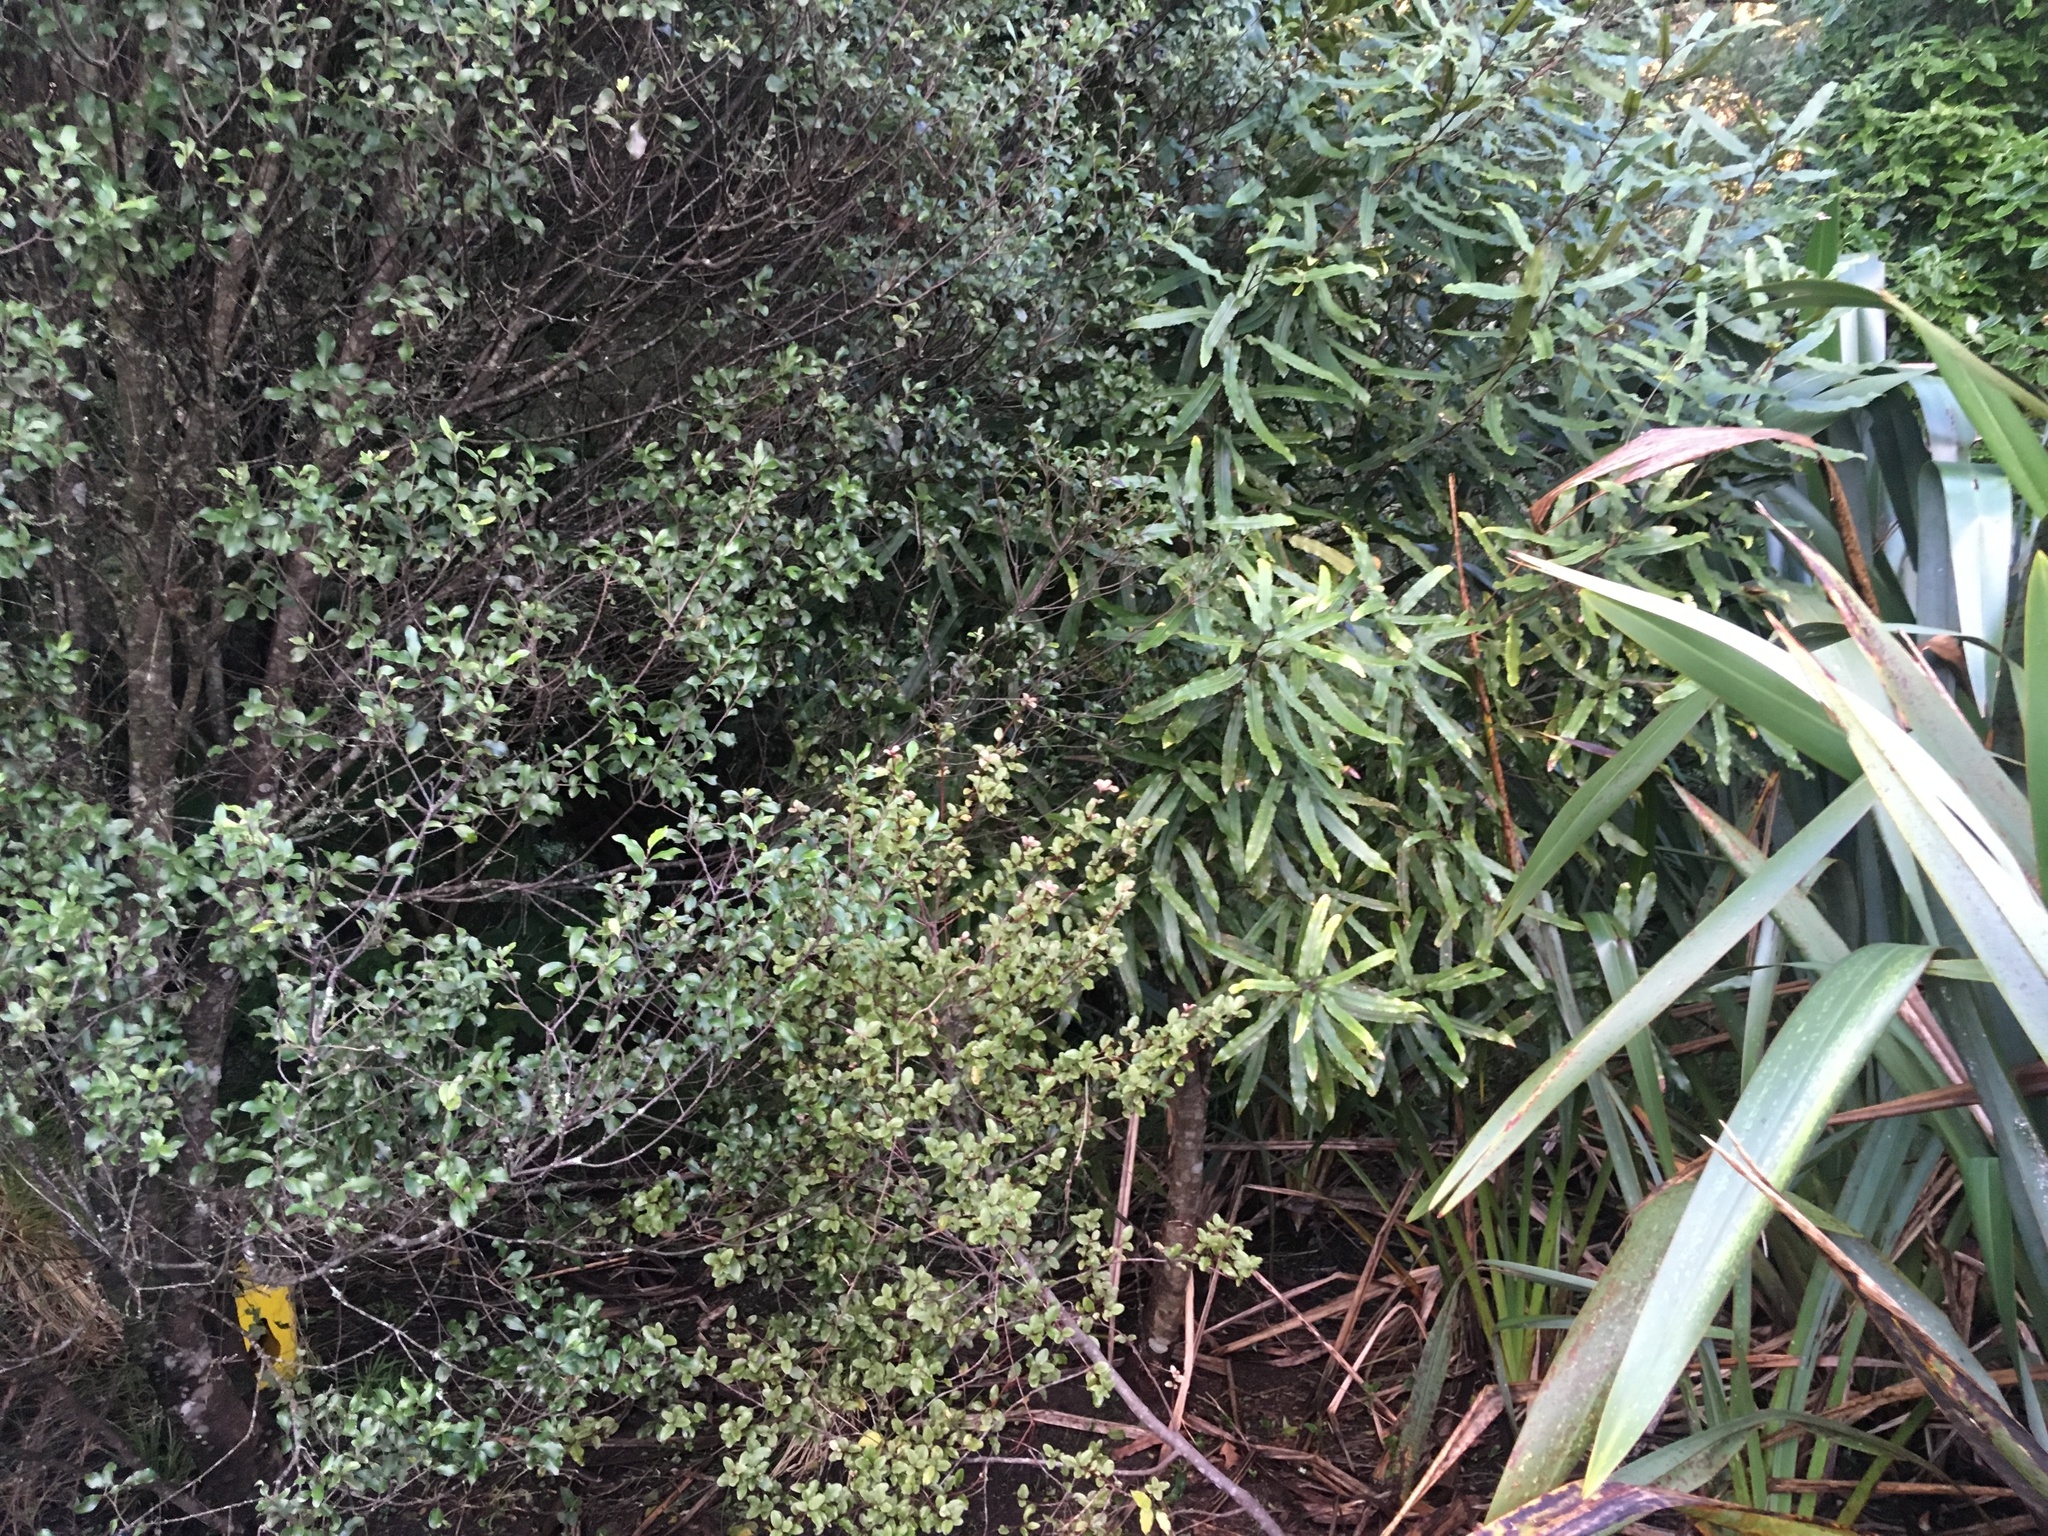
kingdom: Plantae
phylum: Tracheophyta
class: Magnoliopsida
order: Apiales
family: Pittosporaceae
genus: Pittosporum
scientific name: Pittosporum tenuifolium
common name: Kohuhu
